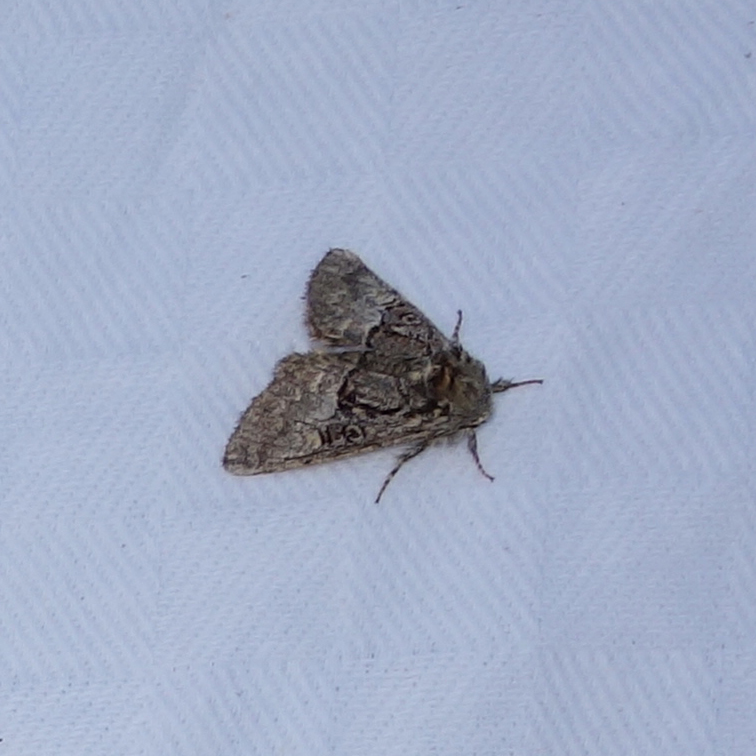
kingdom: Animalia
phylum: Arthropoda
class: Insecta
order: Lepidoptera
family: Noctuidae
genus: Colocasia
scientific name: Colocasia coryli
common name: Nut-tree tussock
